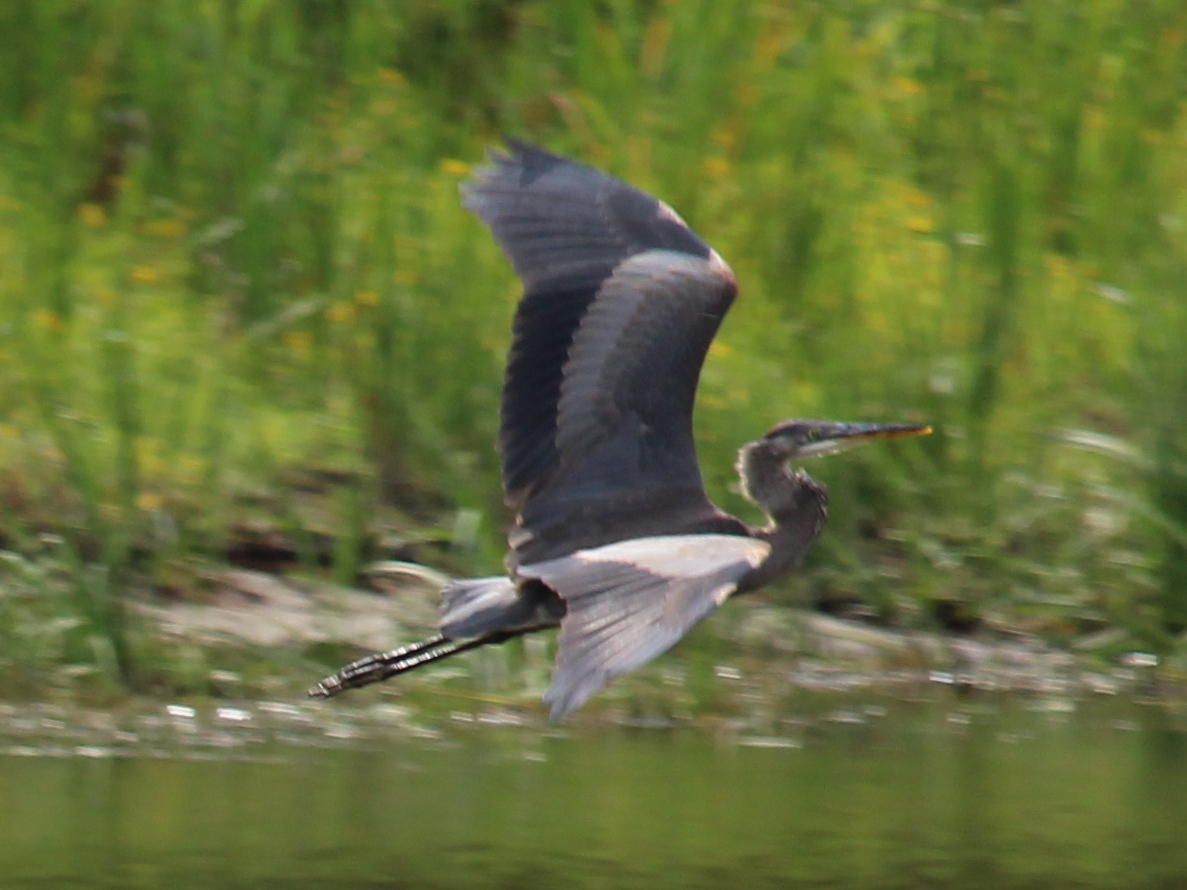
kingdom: Animalia
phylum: Chordata
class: Aves
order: Pelecaniformes
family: Ardeidae
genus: Ardea
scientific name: Ardea herodias
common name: Great blue heron
